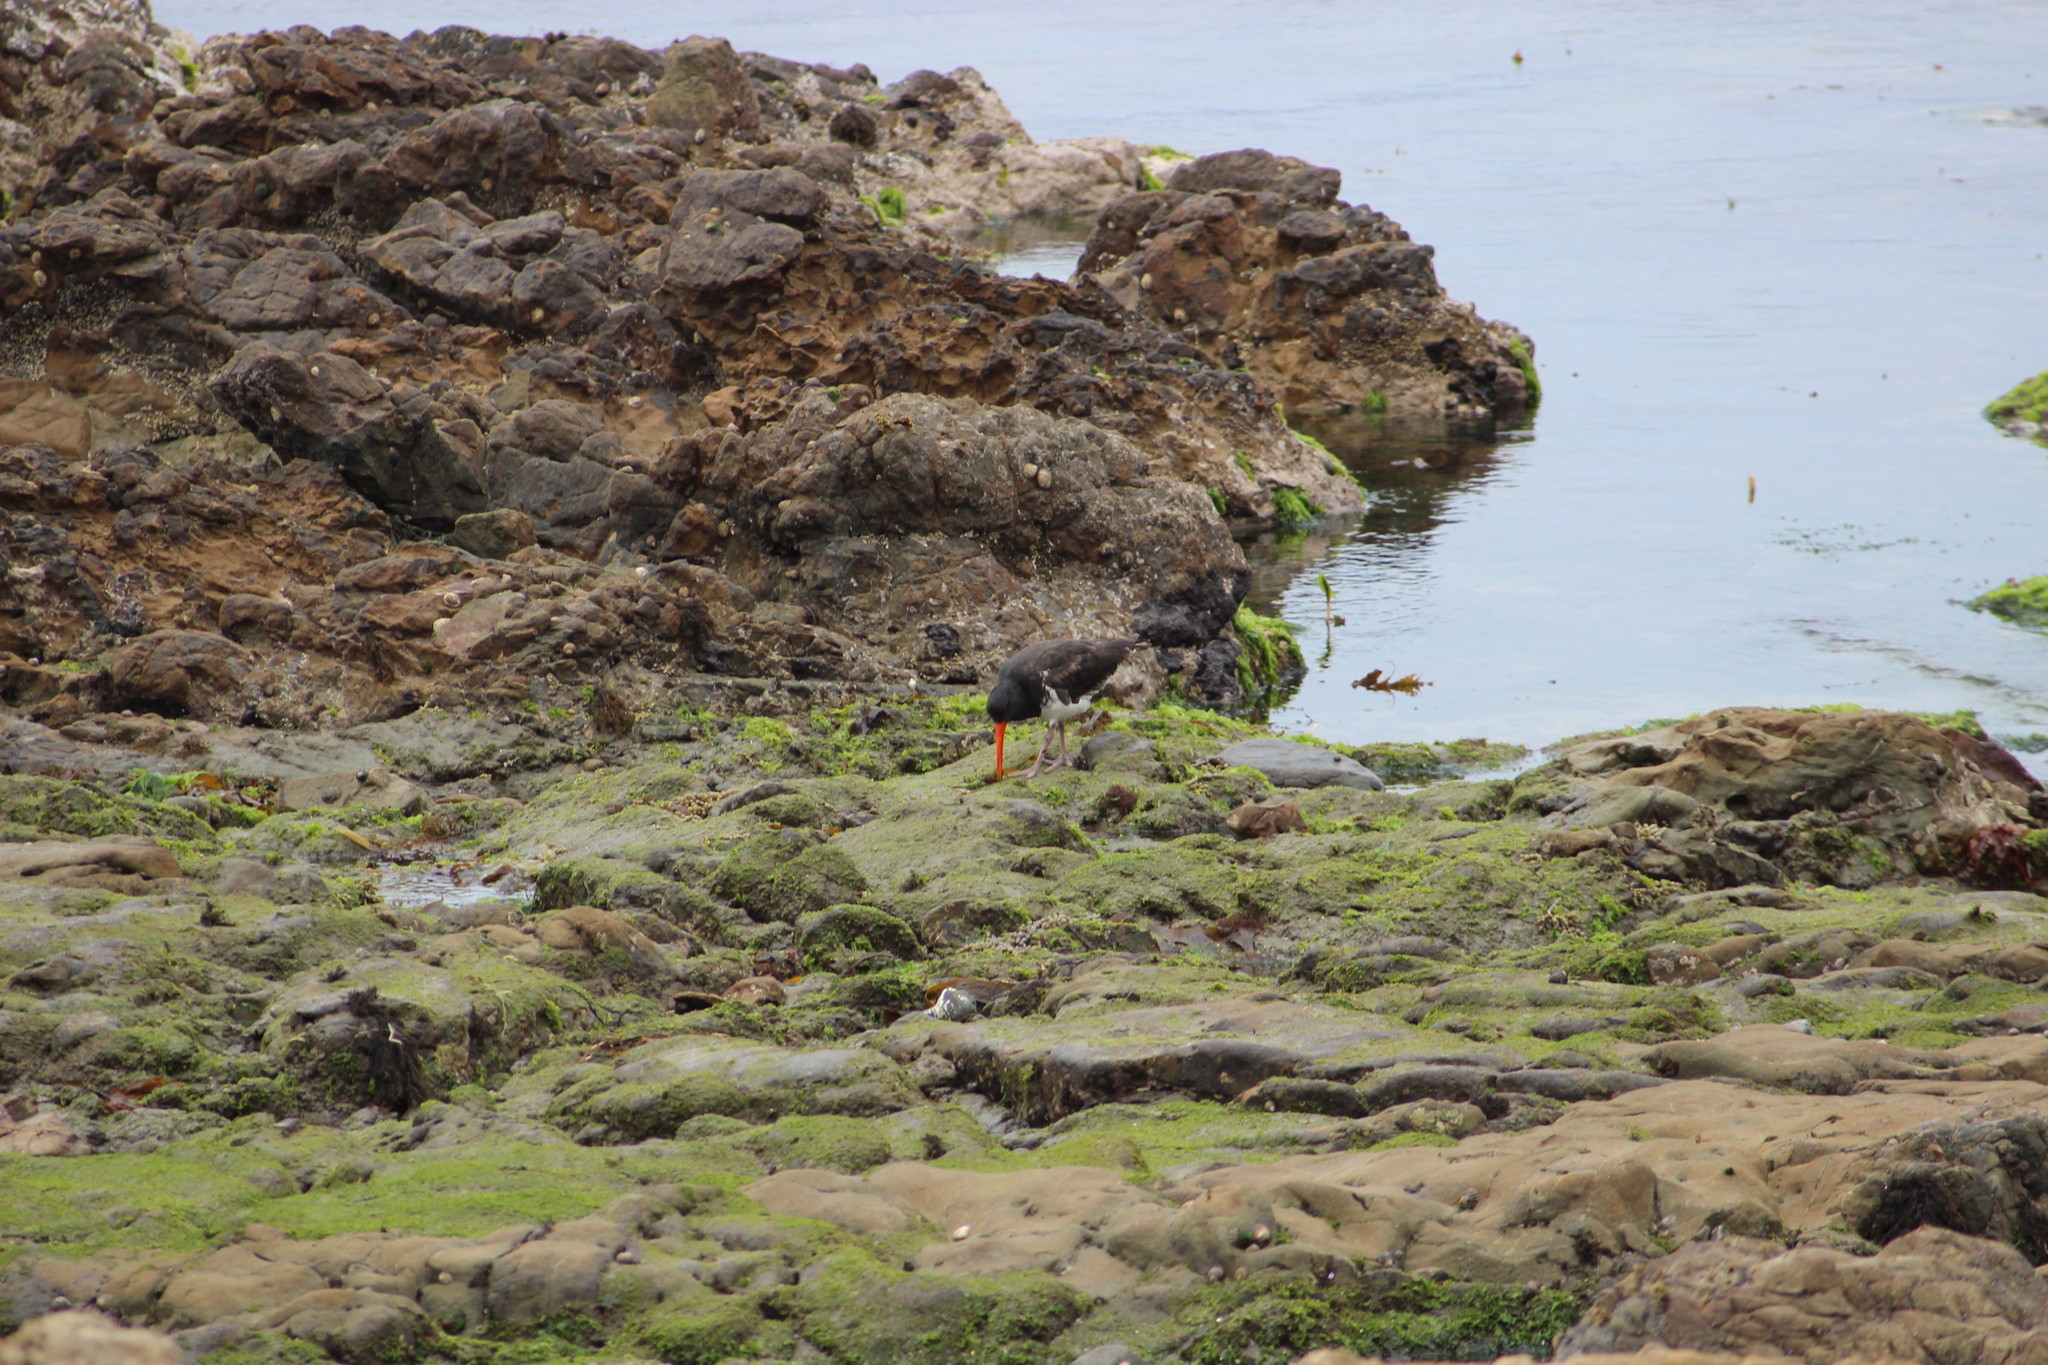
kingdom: Animalia
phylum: Chordata
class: Aves
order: Charadriiformes
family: Haematopodidae
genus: Haematopus
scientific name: Haematopus unicolor
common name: Variable oystercatcher
